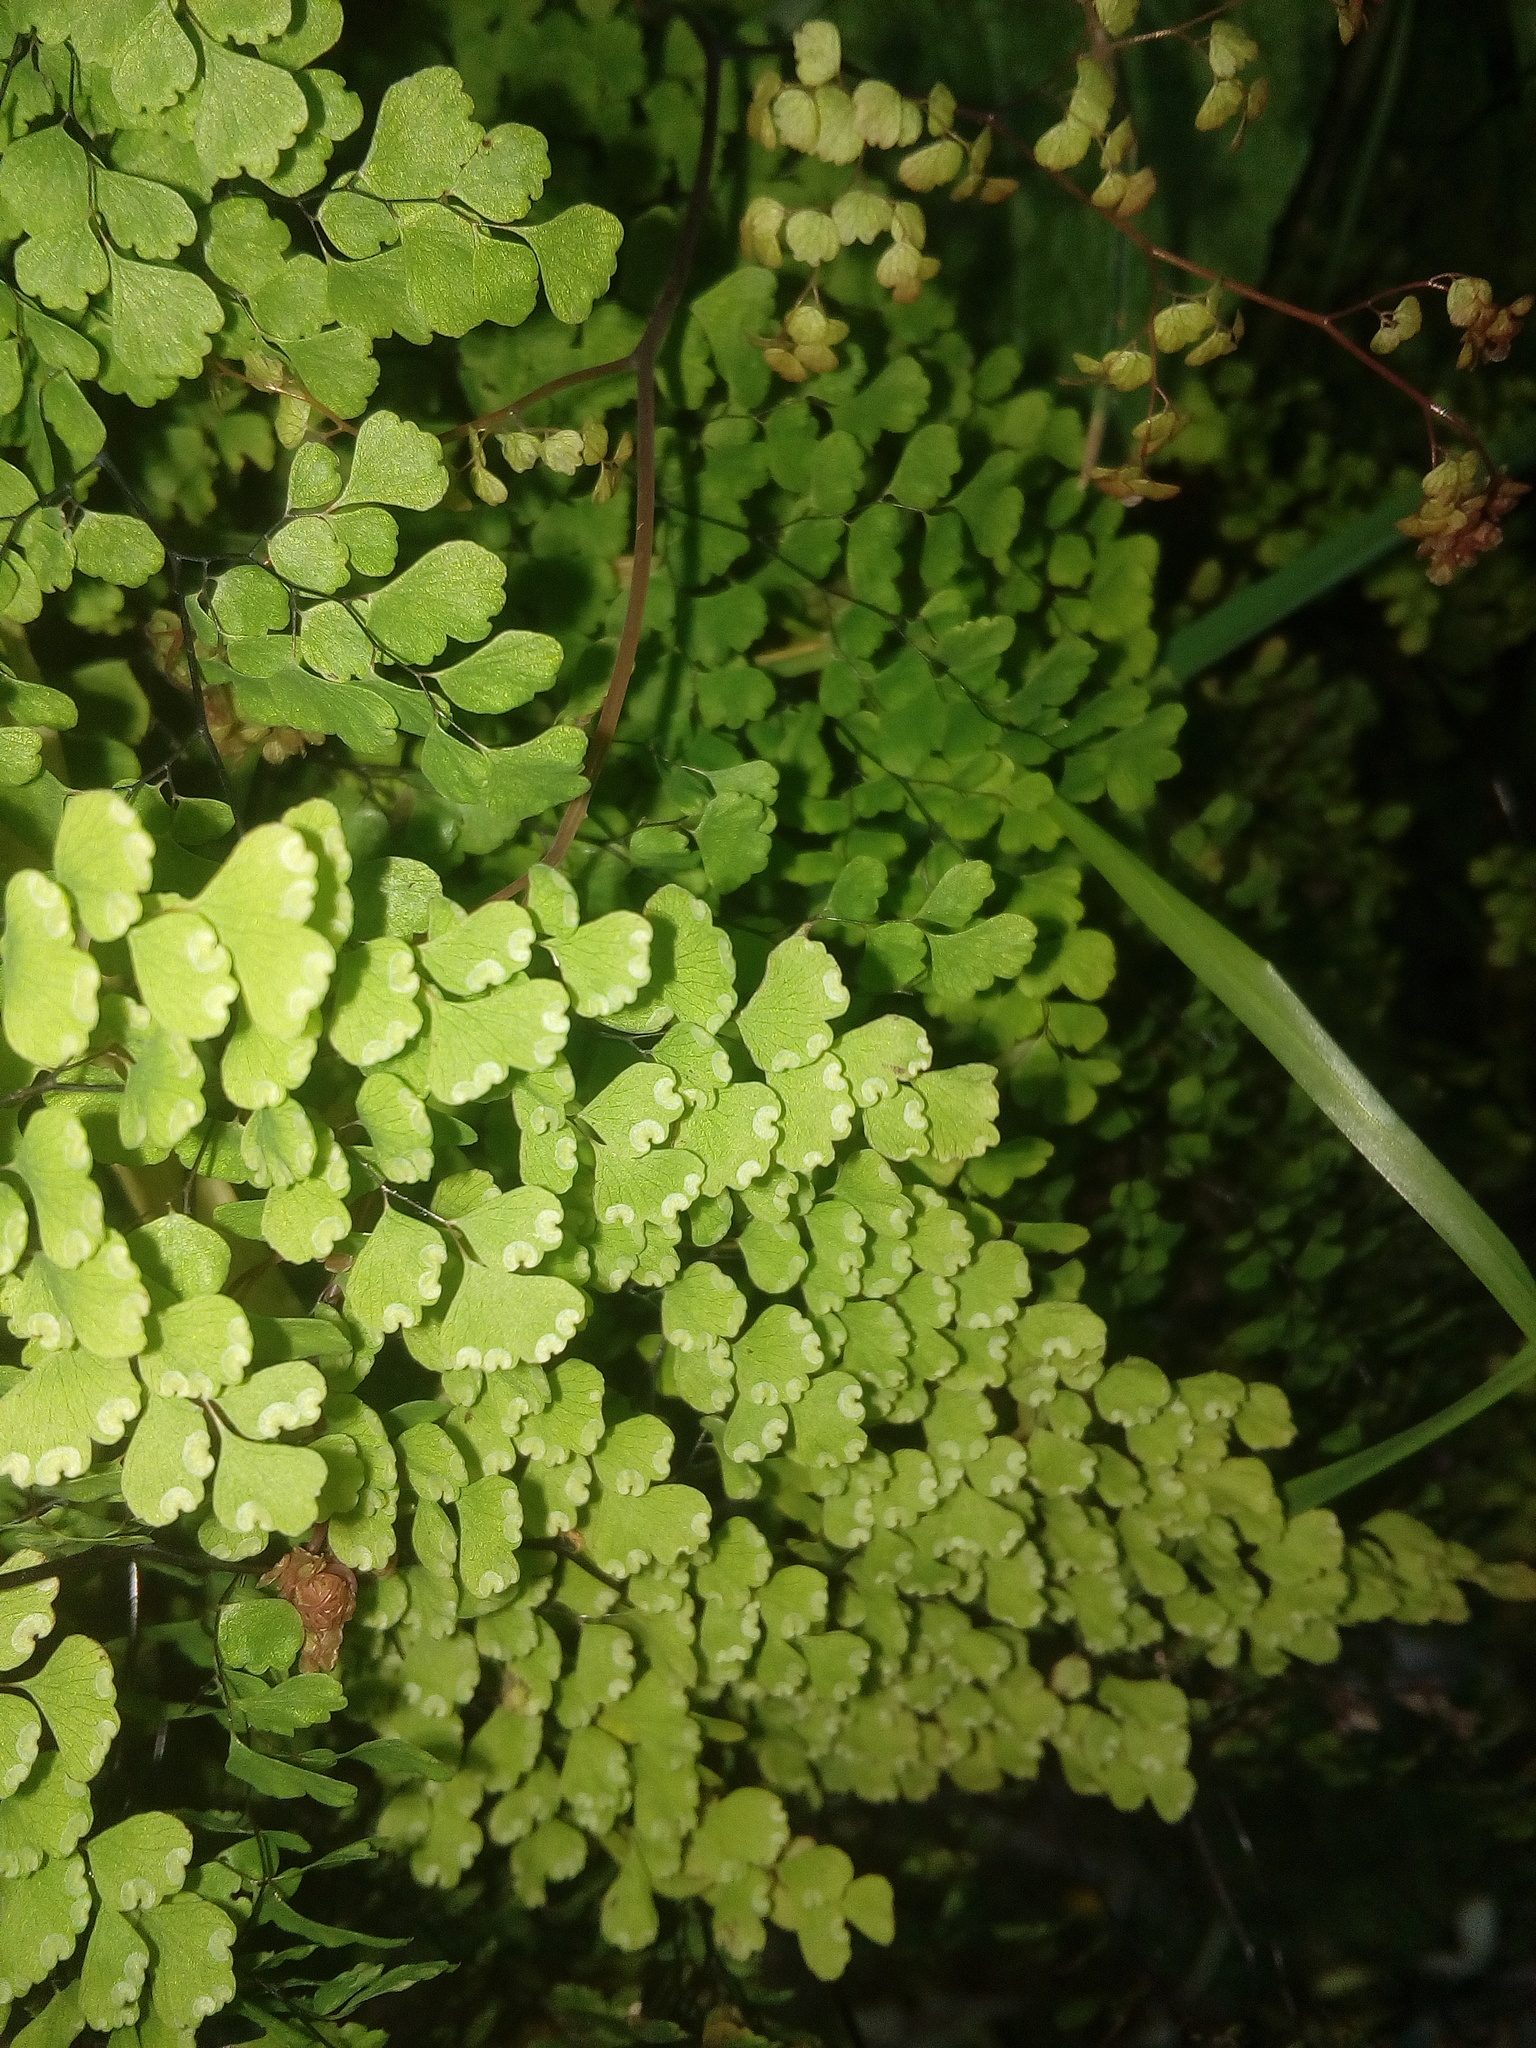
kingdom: Plantae
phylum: Tracheophyta
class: Polypodiopsida
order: Polypodiales
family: Pteridaceae
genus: Adiantum
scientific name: Adiantum raddianum
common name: Delta maidenhair fern
